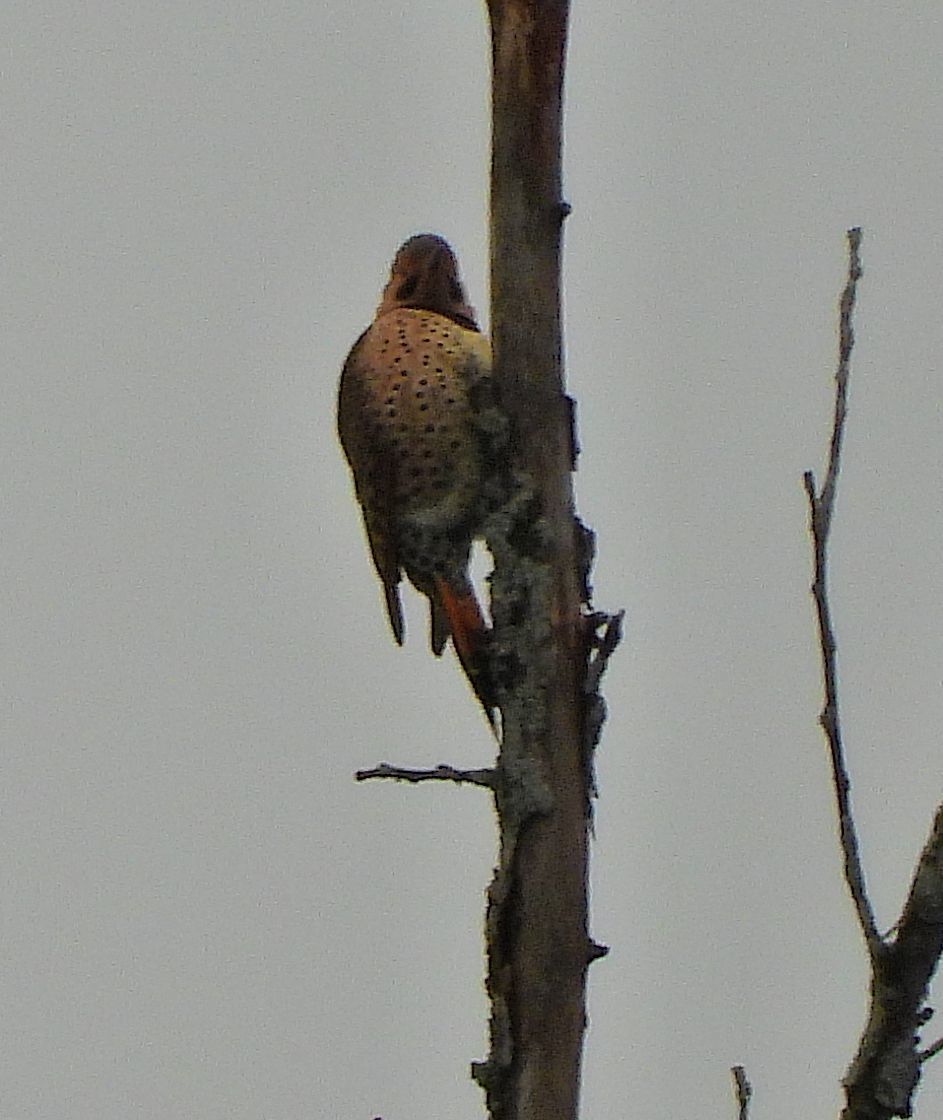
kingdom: Animalia
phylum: Chordata
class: Aves
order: Piciformes
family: Picidae
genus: Colaptes
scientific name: Colaptes auratus
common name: Northern flicker
